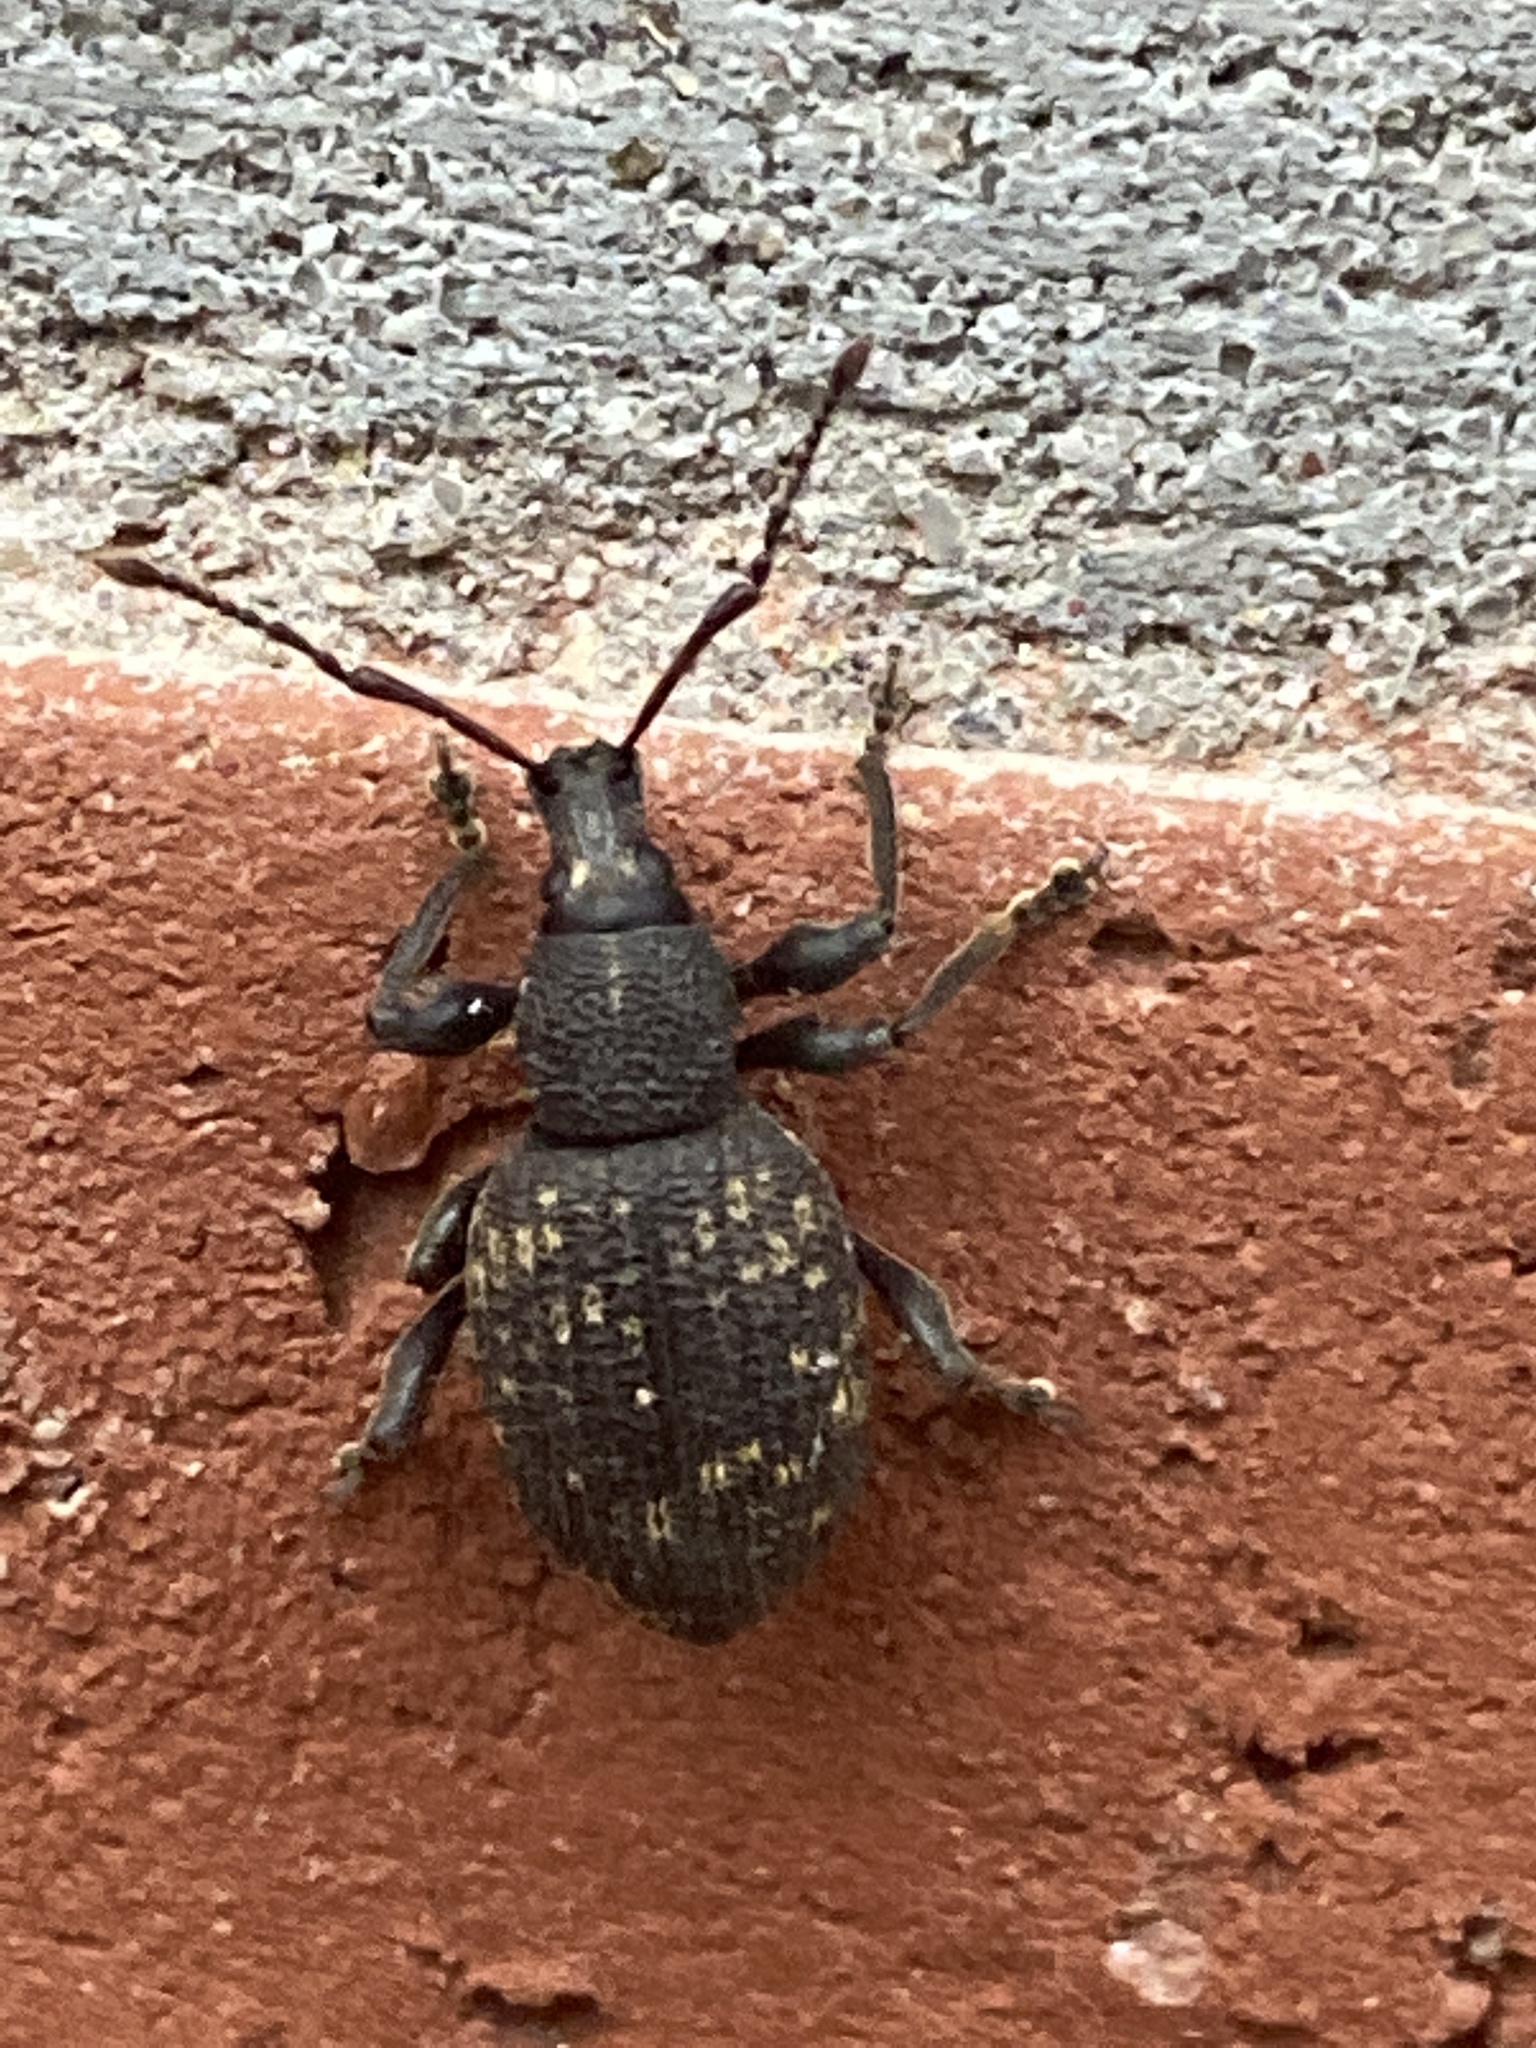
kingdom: Animalia
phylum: Arthropoda
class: Insecta
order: Coleoptera
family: Curculionidae
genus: Otiorhynchus
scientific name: Otiorhynchus sulcatus
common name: Black vine weevil
